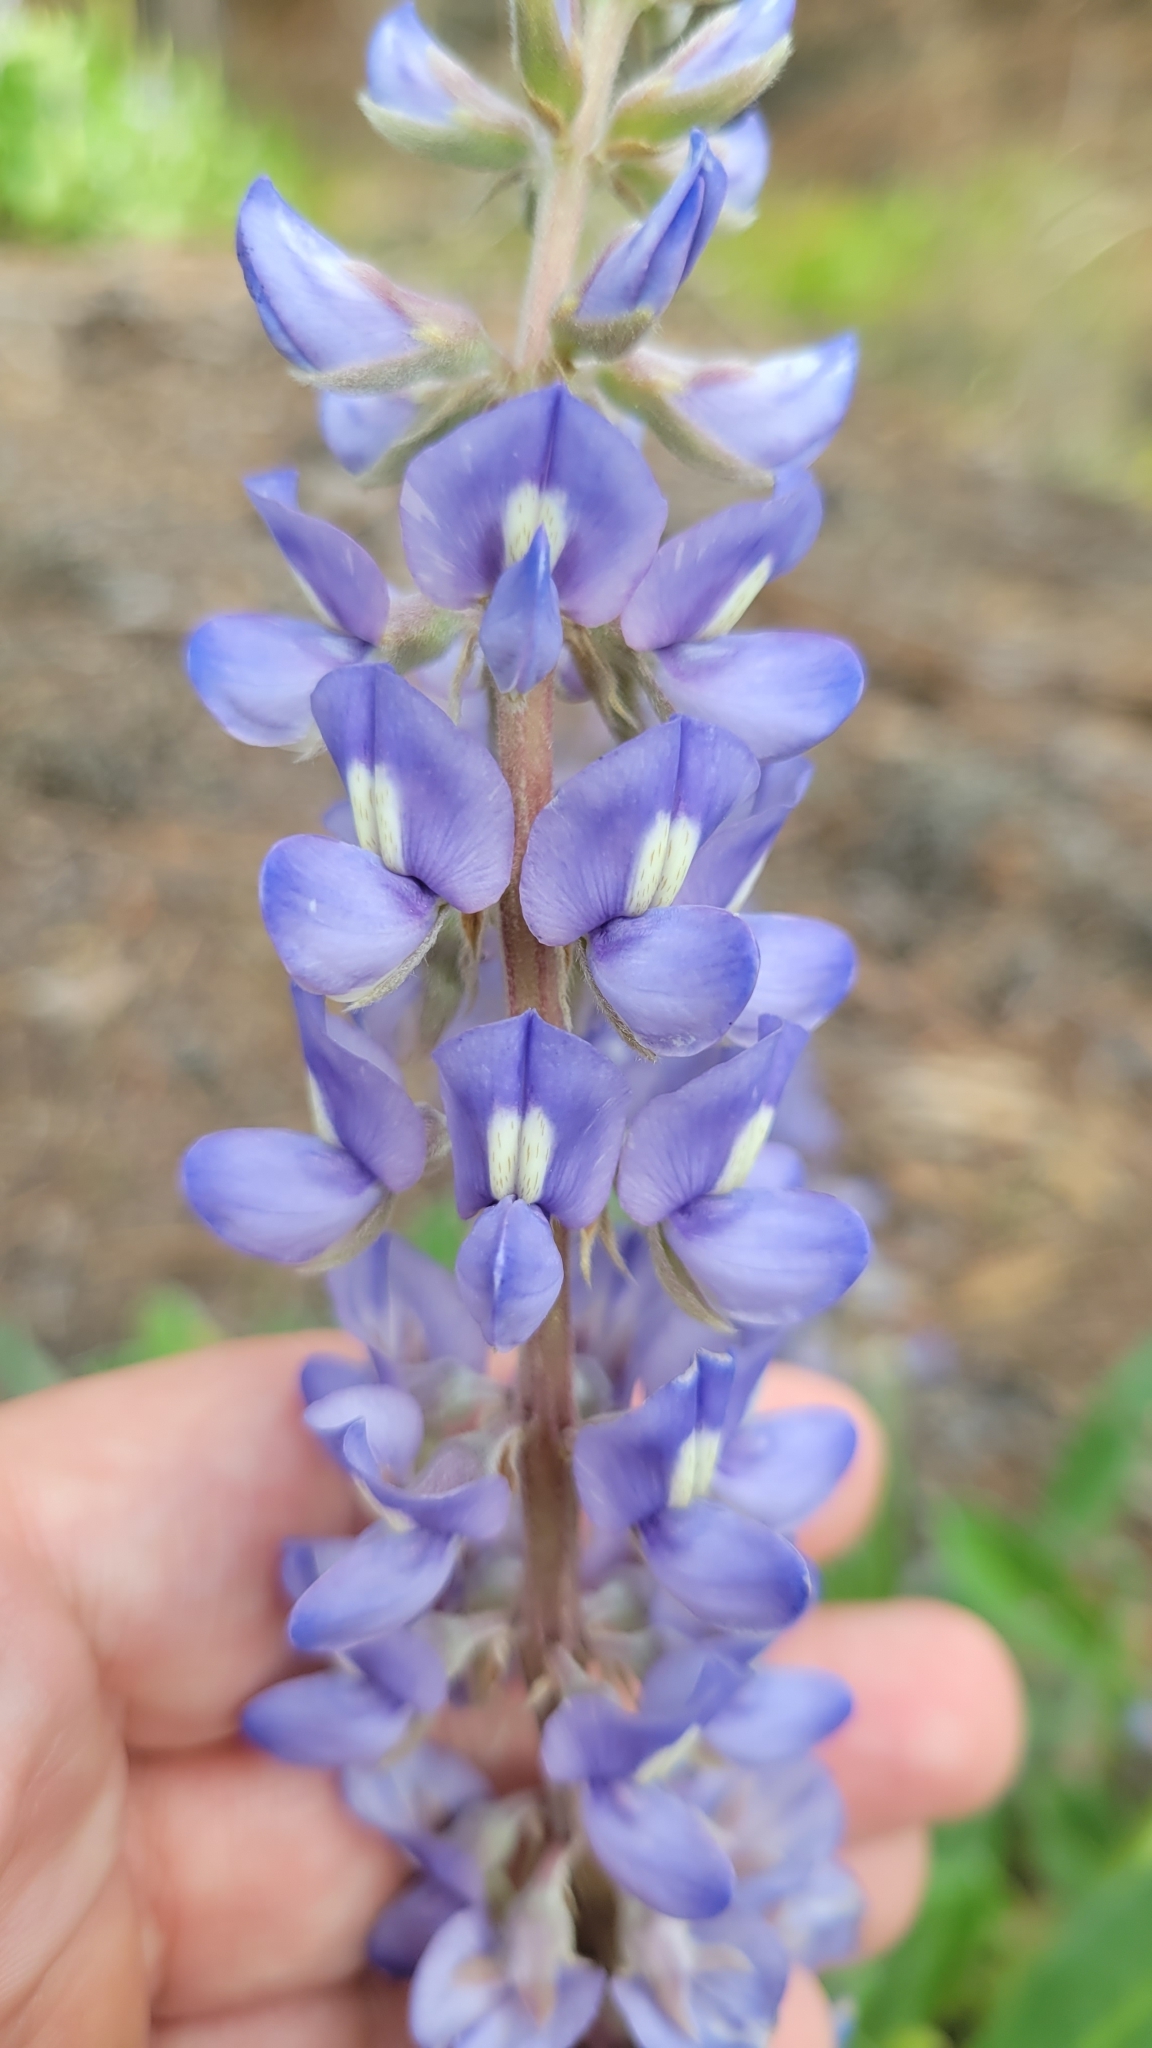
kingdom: Plantae
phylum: Tracheophyta
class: Magnoliopsida
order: Fabales
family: Fabaceae
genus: Lupinus
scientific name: Lupinus diffusus
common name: Oak ridge lupine
